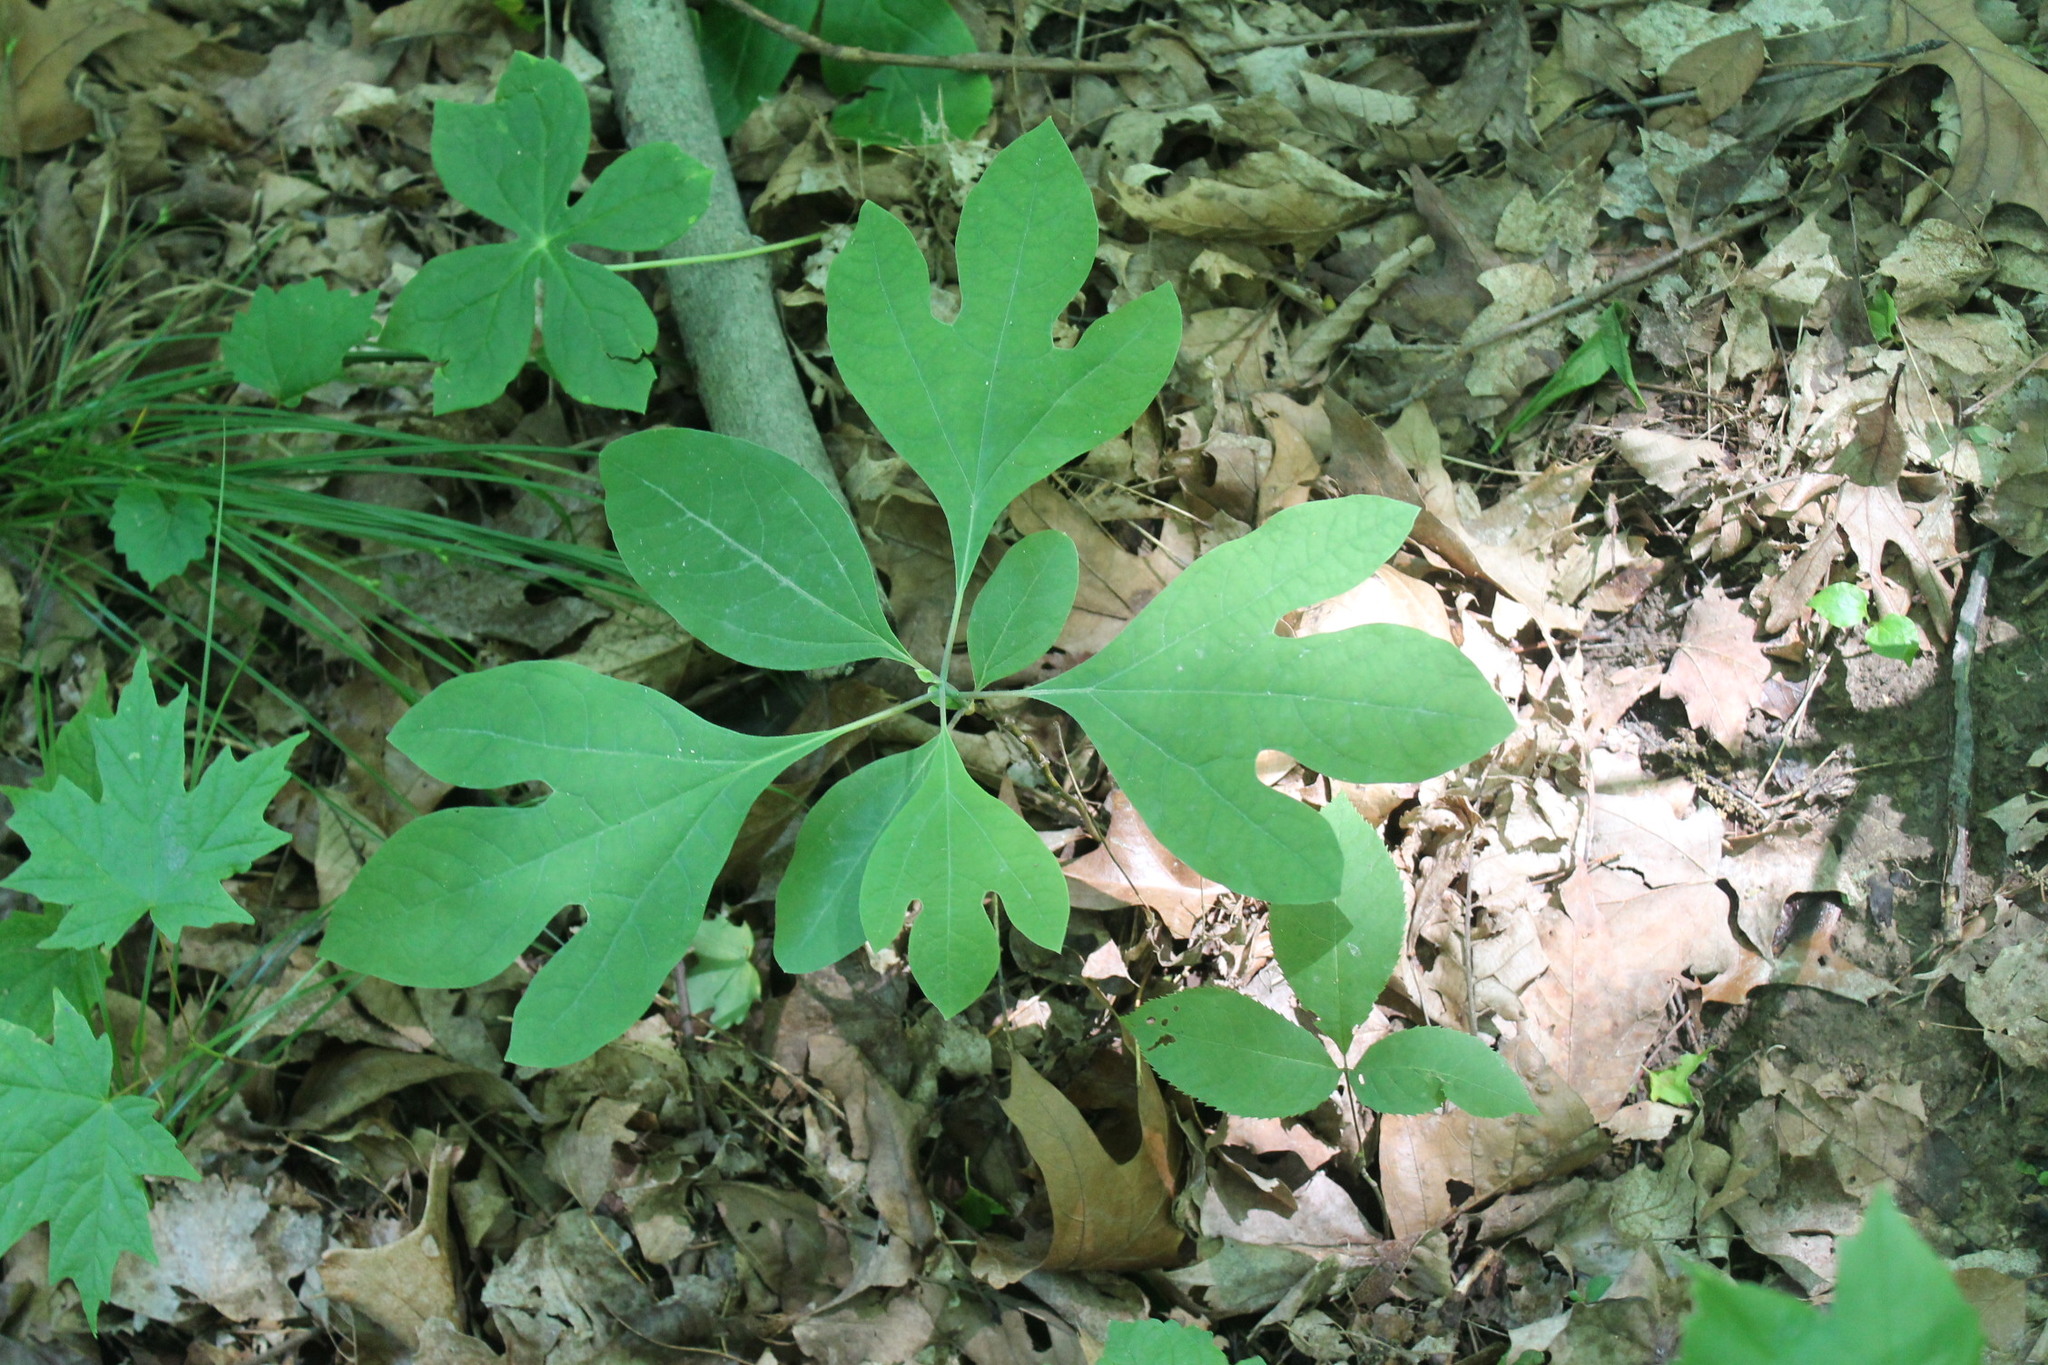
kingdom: Plantae
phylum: Tracheophyta
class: Magnoliopsida
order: Laurales
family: Lauraceae
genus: Sassafras
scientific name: Sassafras albidum
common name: Sassafras
